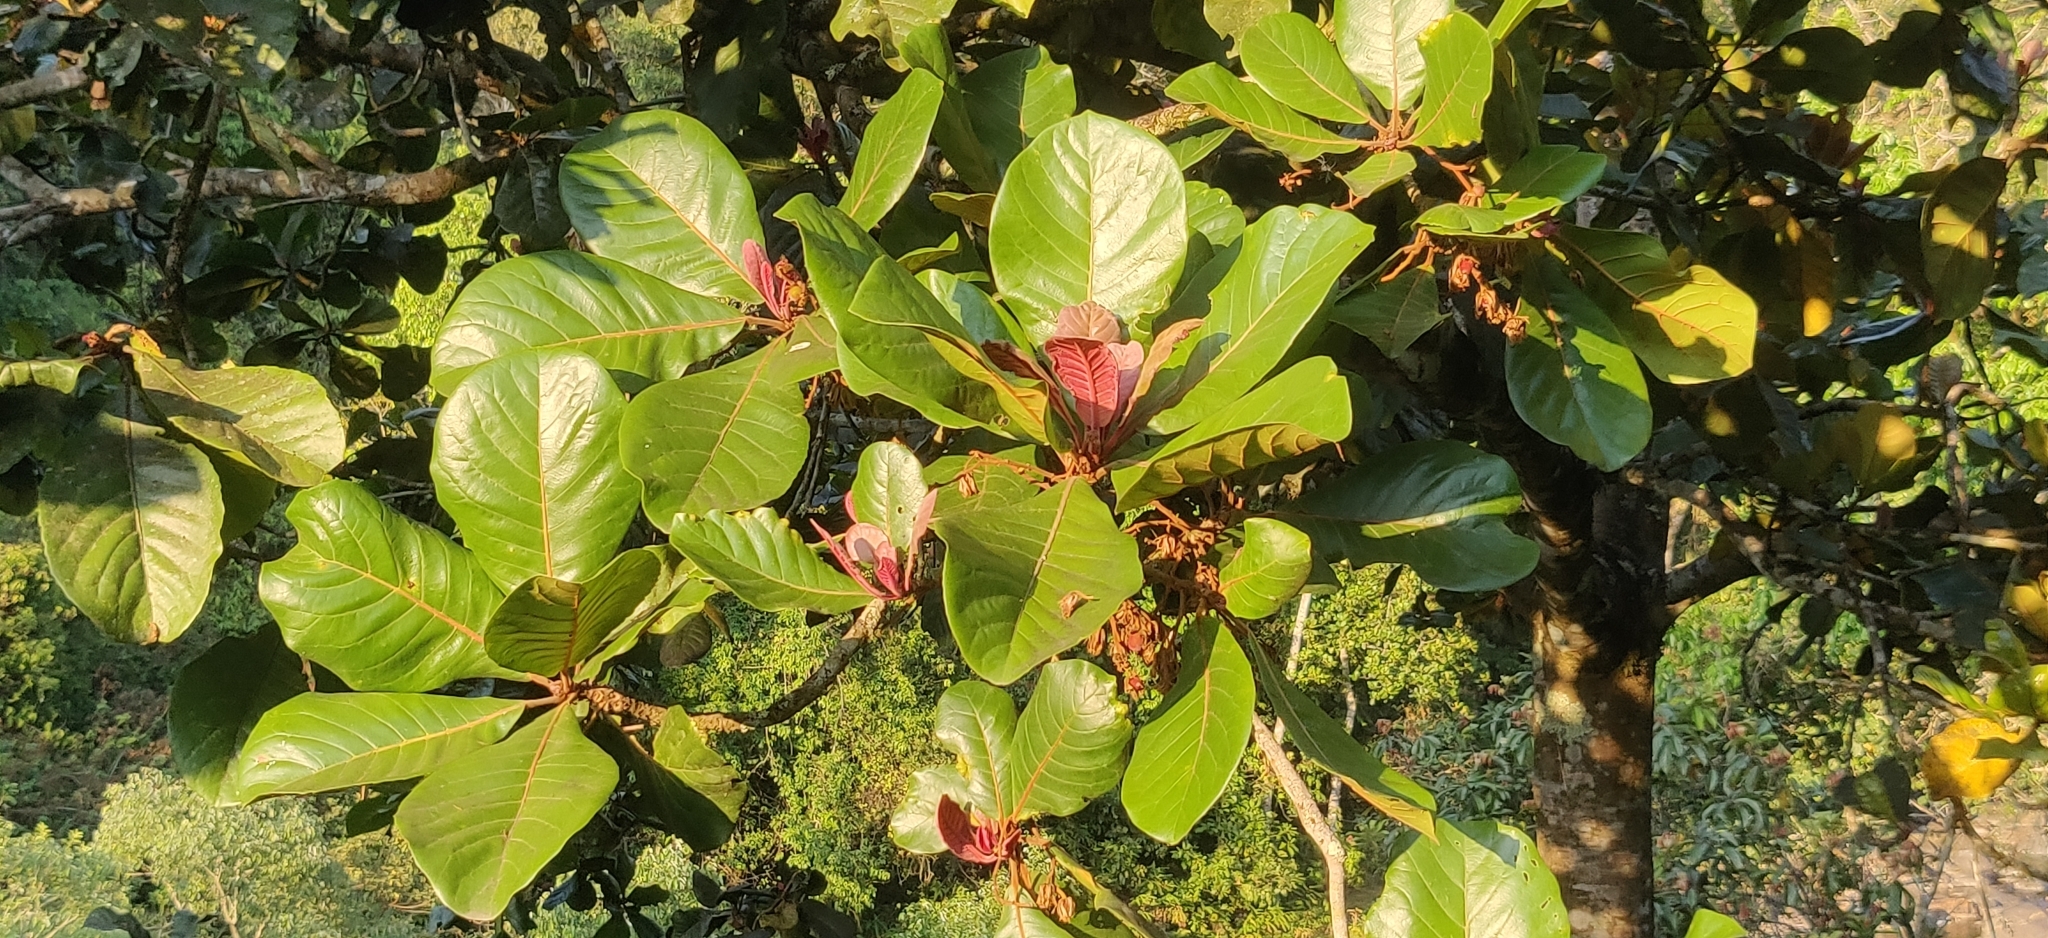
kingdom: Plantae
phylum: Tracheophyta
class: Magnoliopsida
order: Oxalidales
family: Elaeocarpaceae
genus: Elaeocarpus
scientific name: Elaeocarpus tuberculatus
